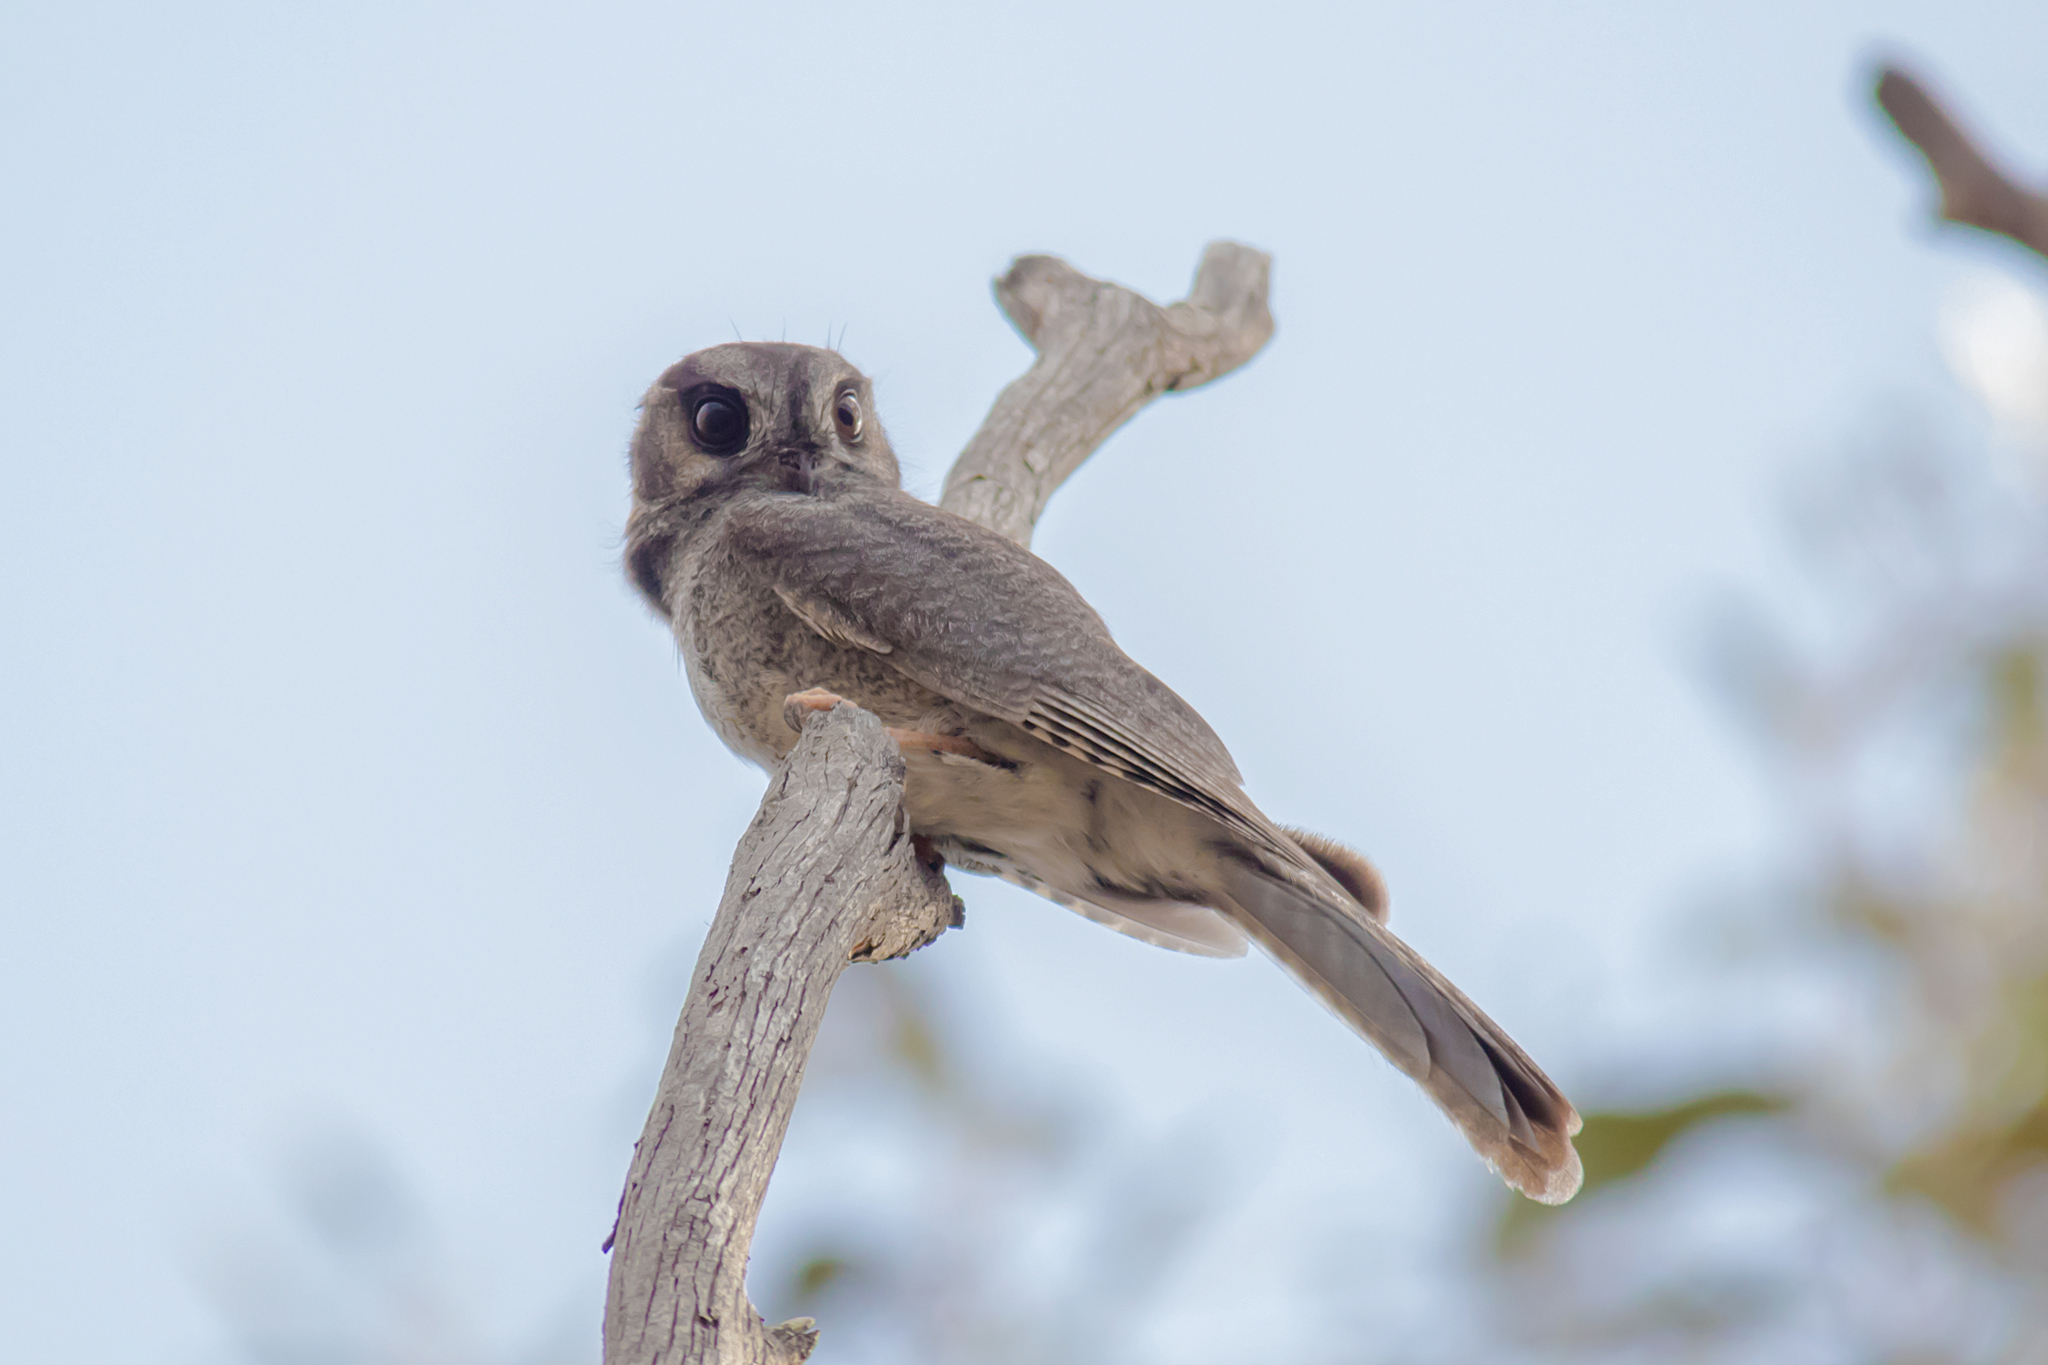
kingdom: Animalia
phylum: Chordata
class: Aves
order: Apodiformes
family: Aegothelidae
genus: Aegotheles
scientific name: Aegotheles cristatus
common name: Australian owlet-nightjar
